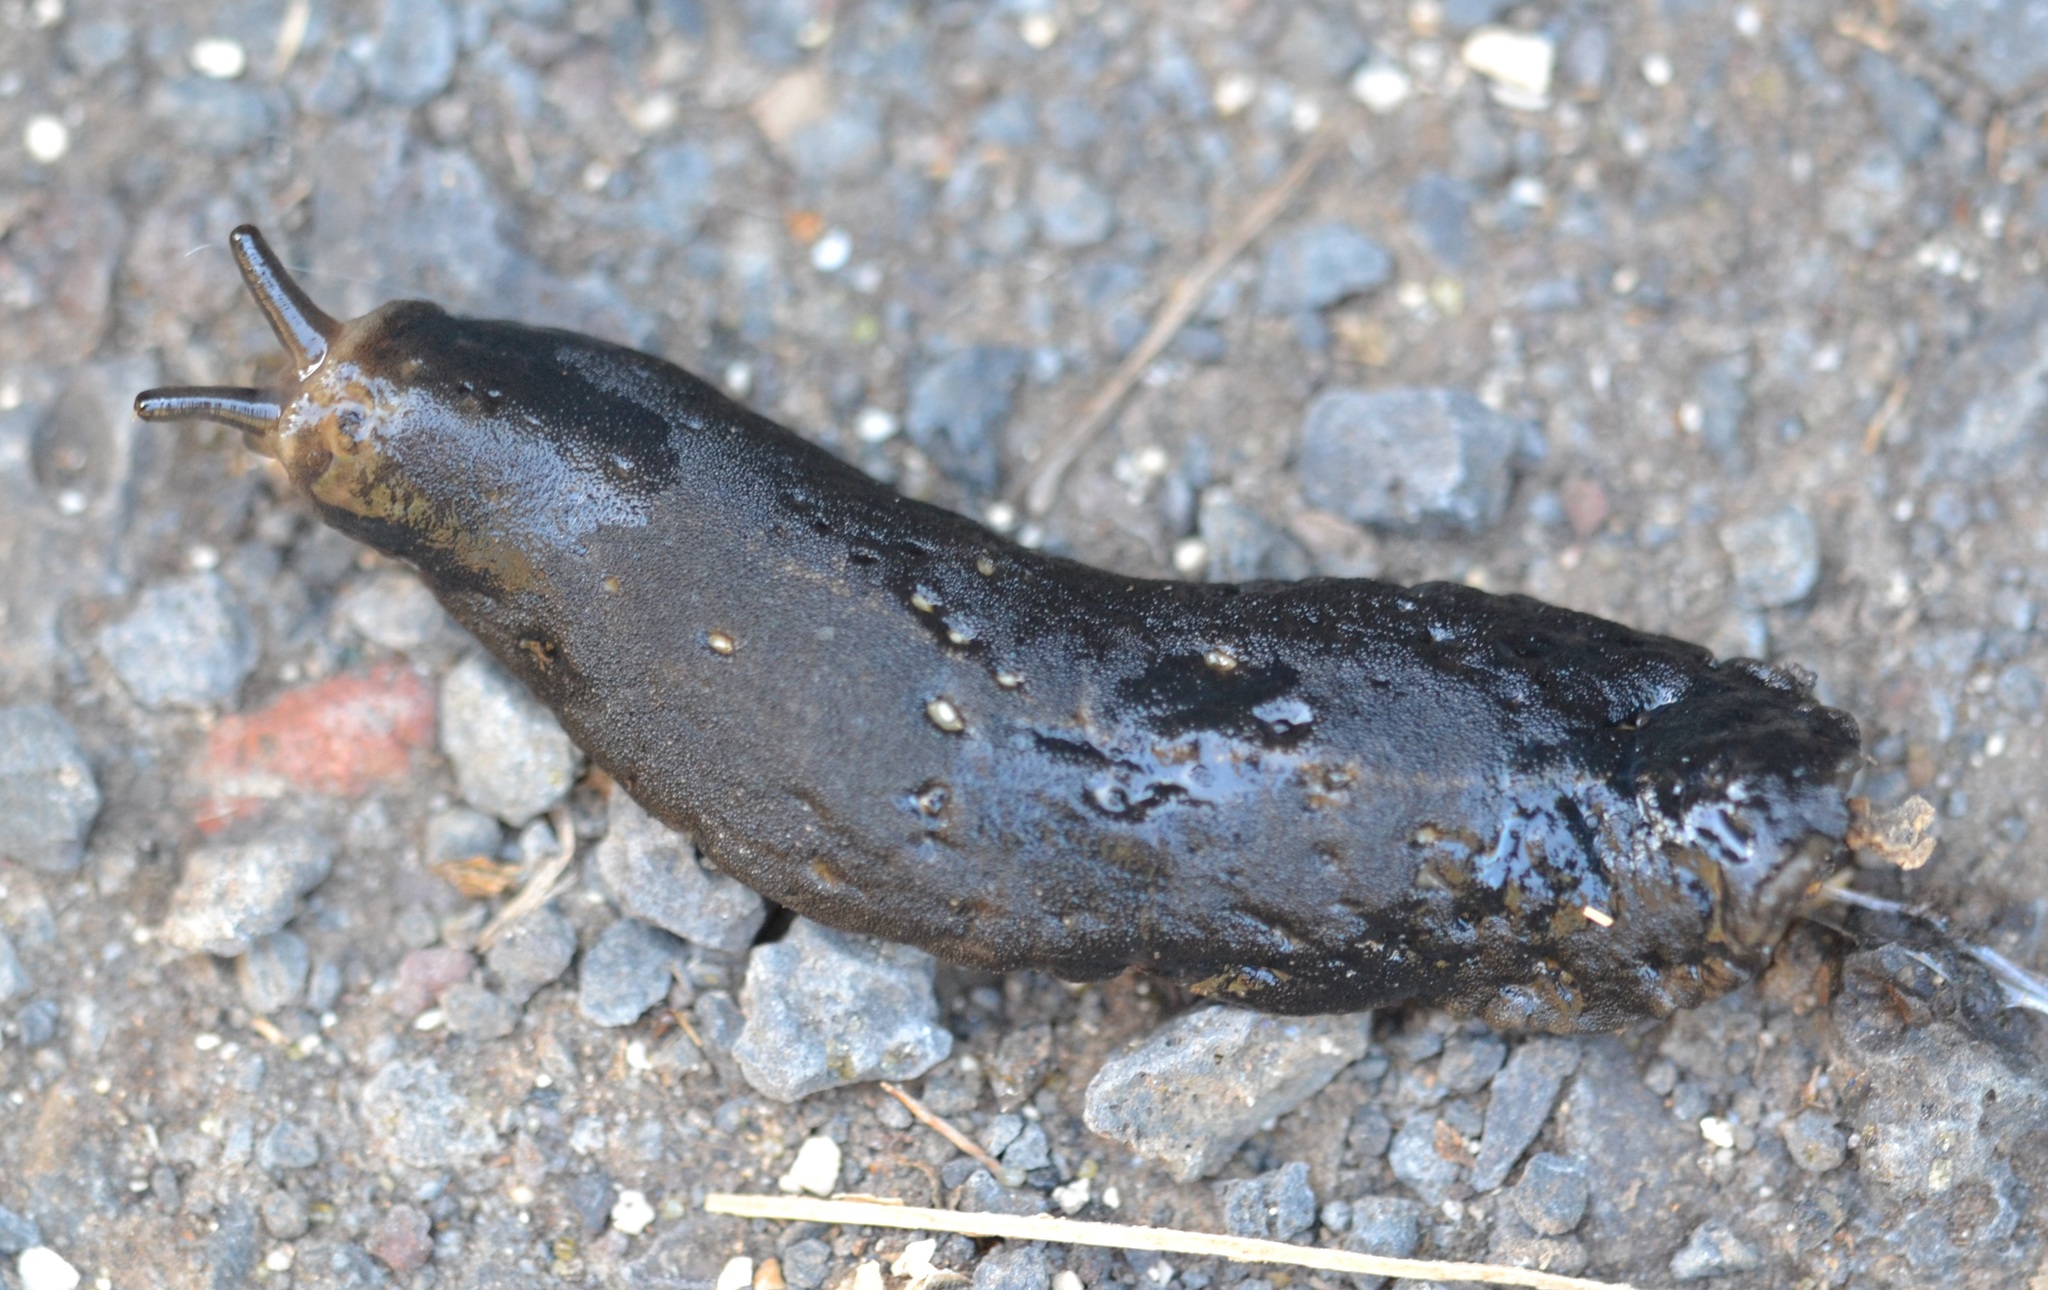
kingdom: Animalia
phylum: Mollusca
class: Gastropoda
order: Systellommatophora
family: Veronicellidae
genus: Laevicaulis
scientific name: Laevicaulis alte
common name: Tropical leatherleaf
